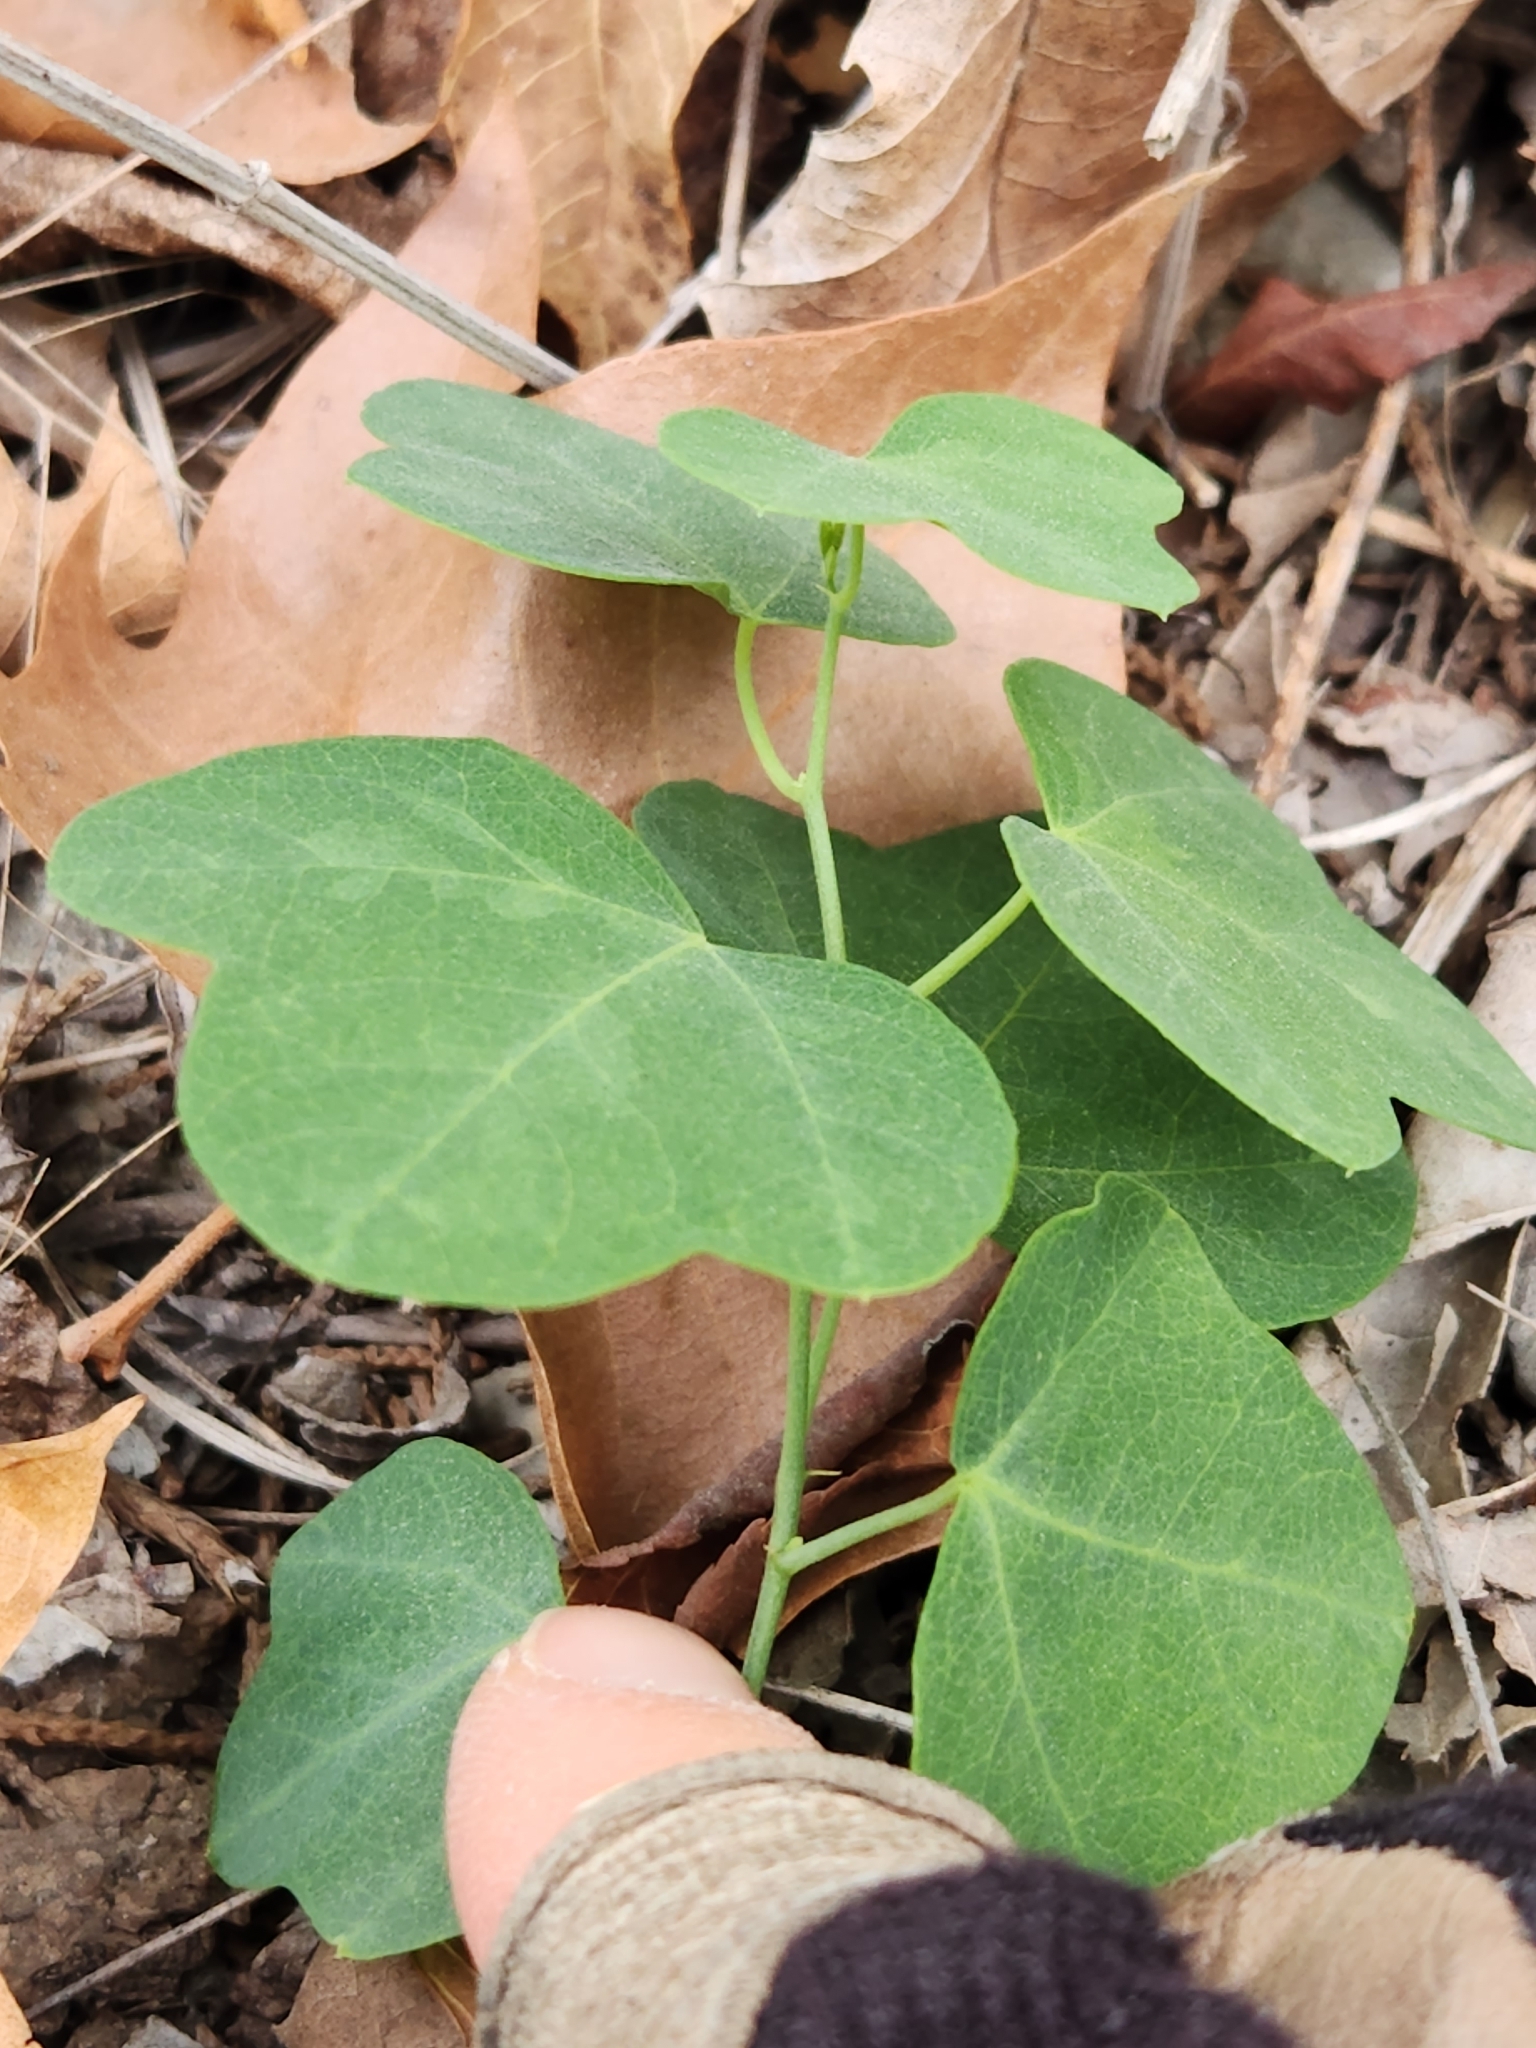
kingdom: Plantae
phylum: Tracheophyta
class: Magnoliopsida
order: Malpighiales
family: Passifloraceae
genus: Passiflora
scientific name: Passiflora lutea
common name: Yellow passionflower
